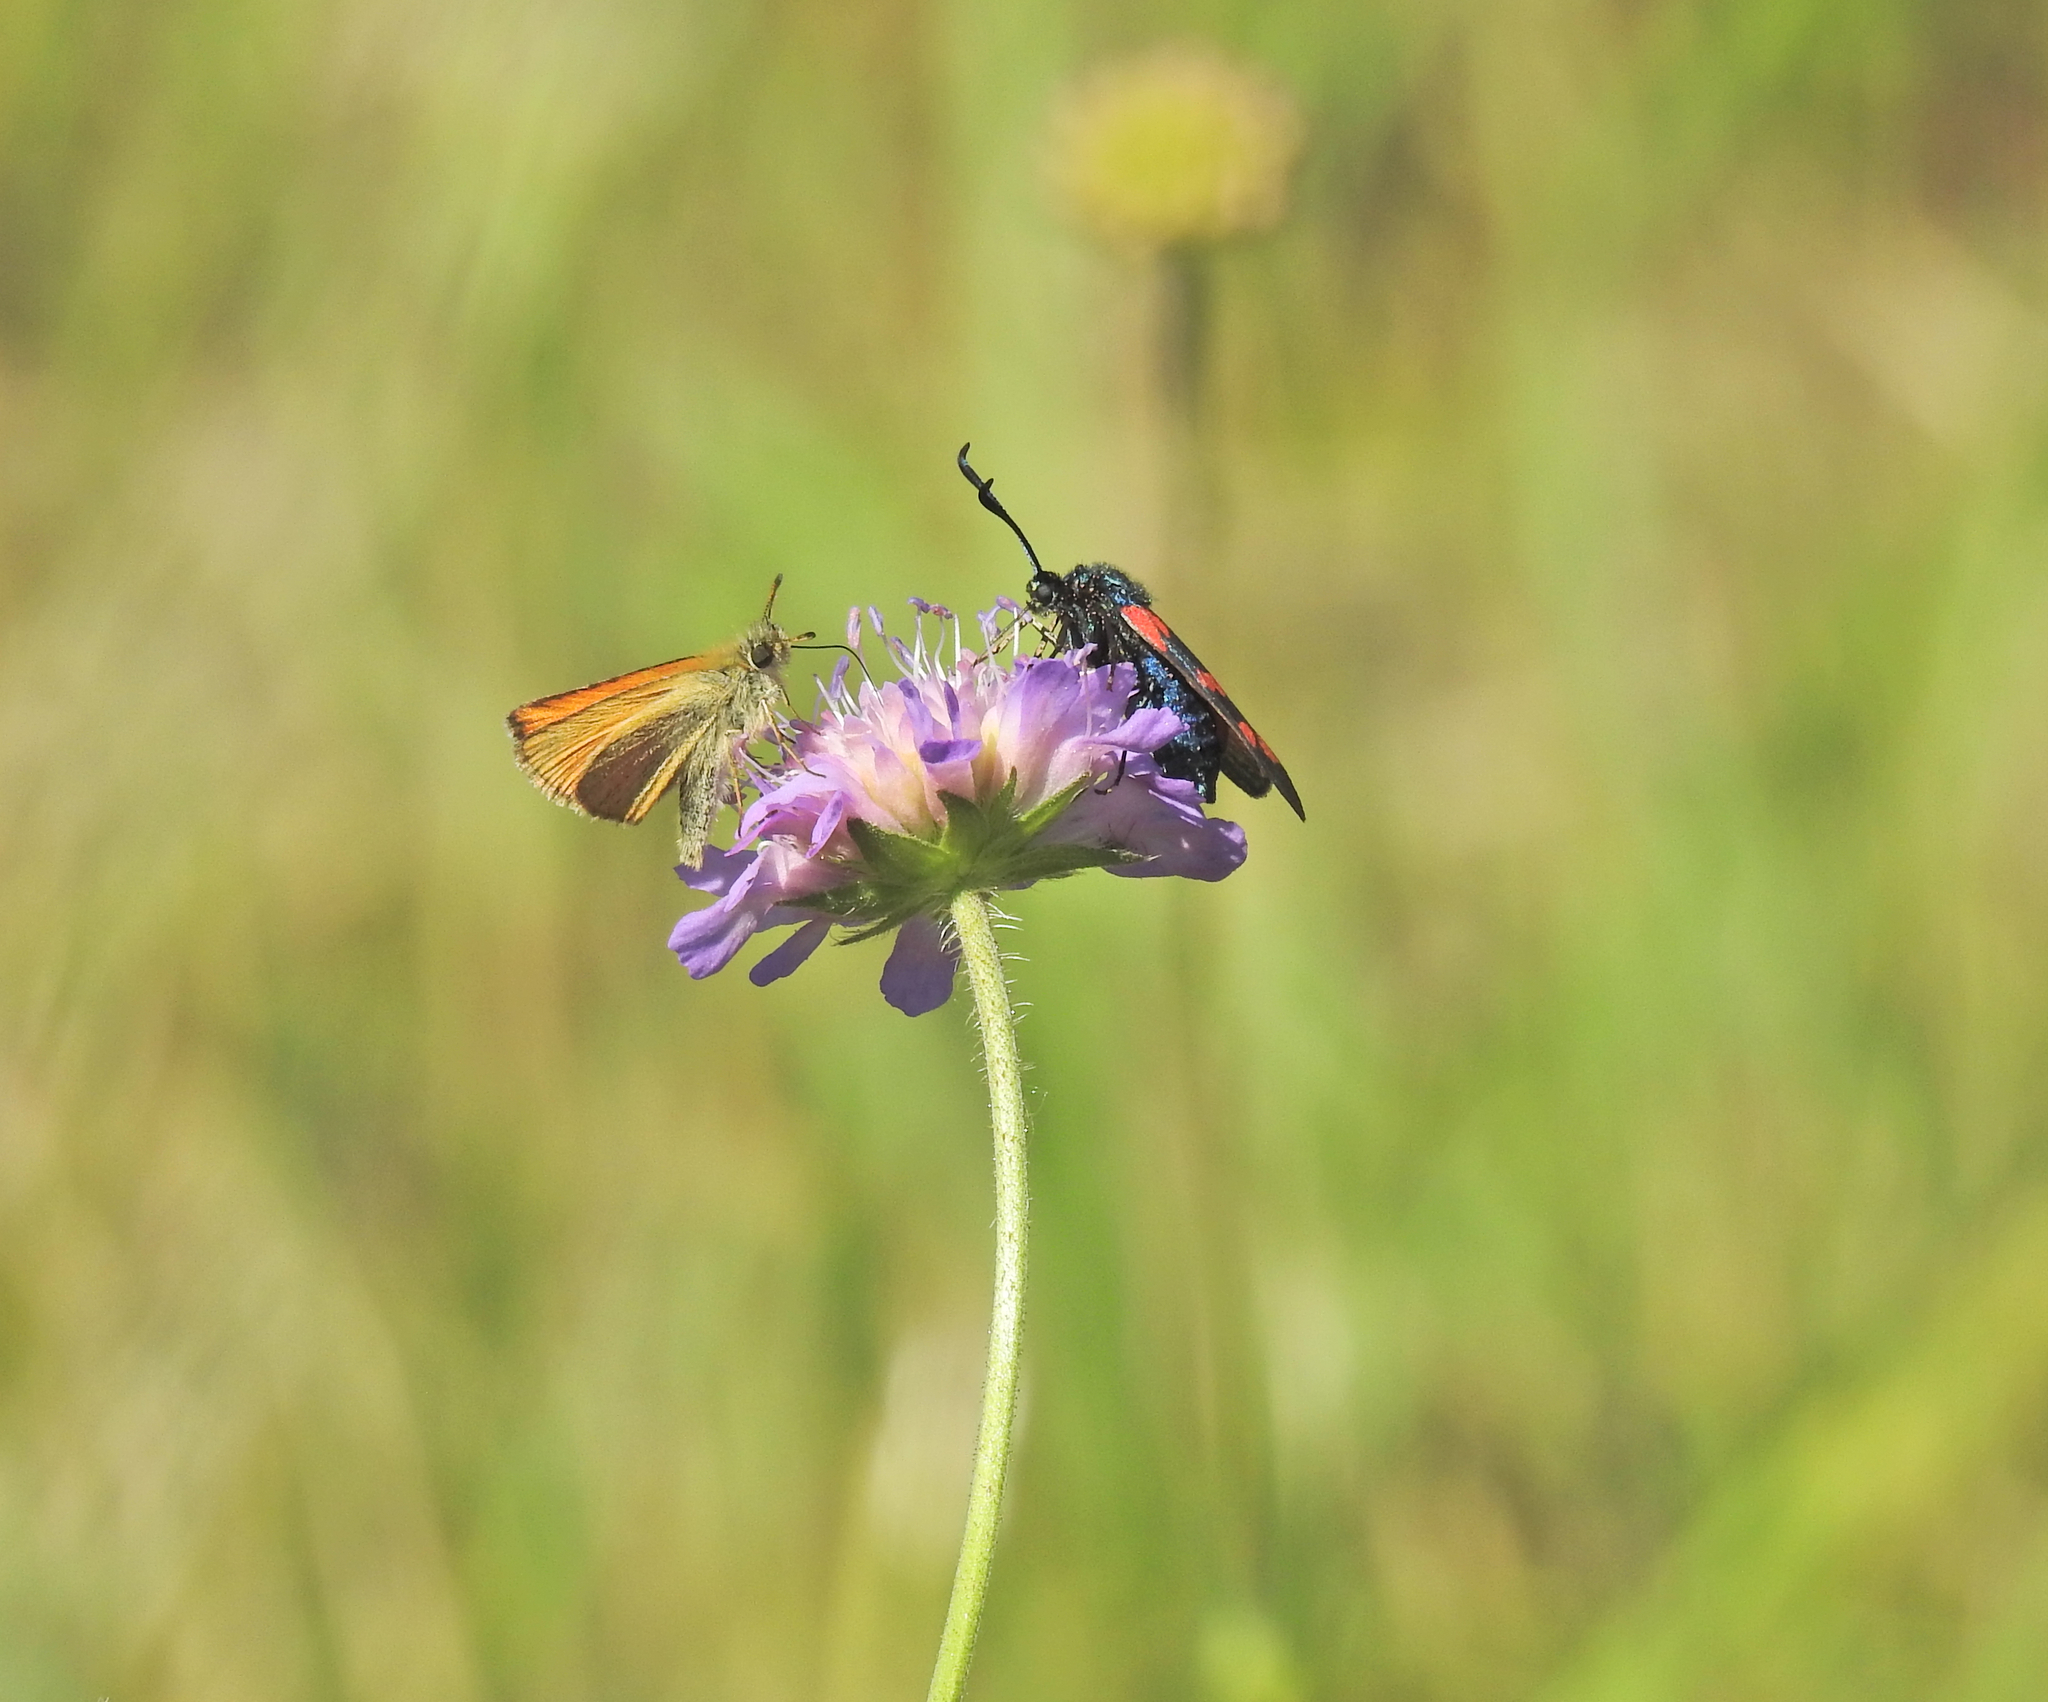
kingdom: Plantae
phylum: Tracheophyta
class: Magnoliopsida
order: Dipsacales
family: Caprifoliaceae
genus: Knautia
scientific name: Knautia arvensis
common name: Field scabiosa
